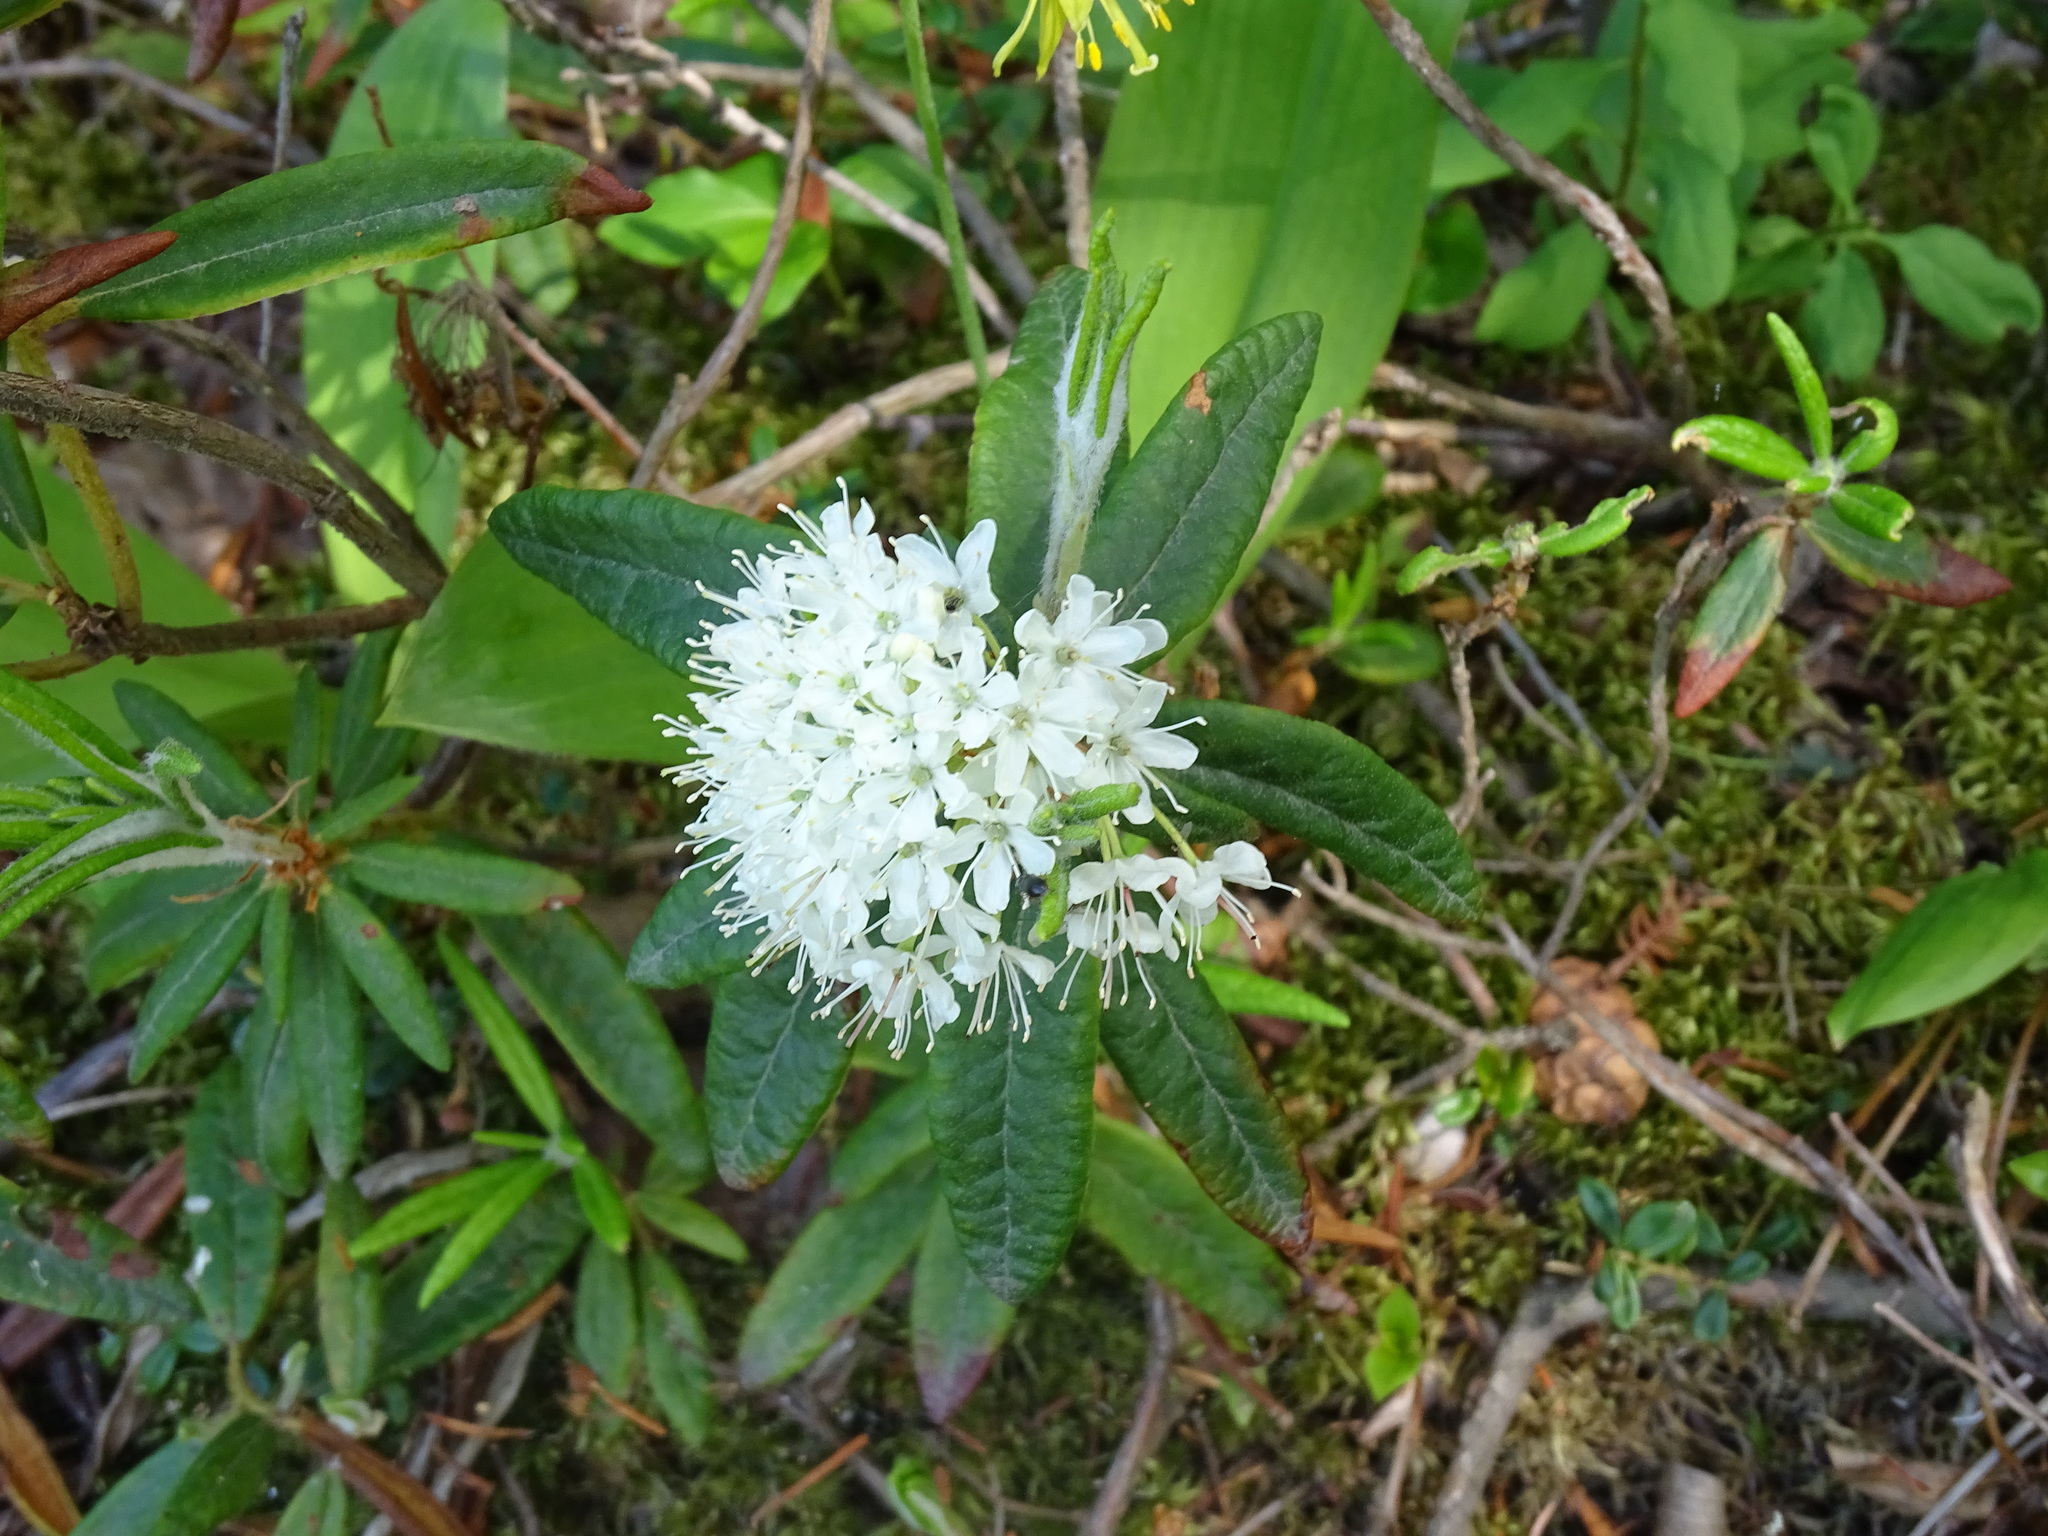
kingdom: Plantae
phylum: Tracheophyta
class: Magnoliopsida
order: Ericales
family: Ericaceae
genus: Rhododendron
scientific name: Rhododendron groenlandicum
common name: Bog labrador tea
